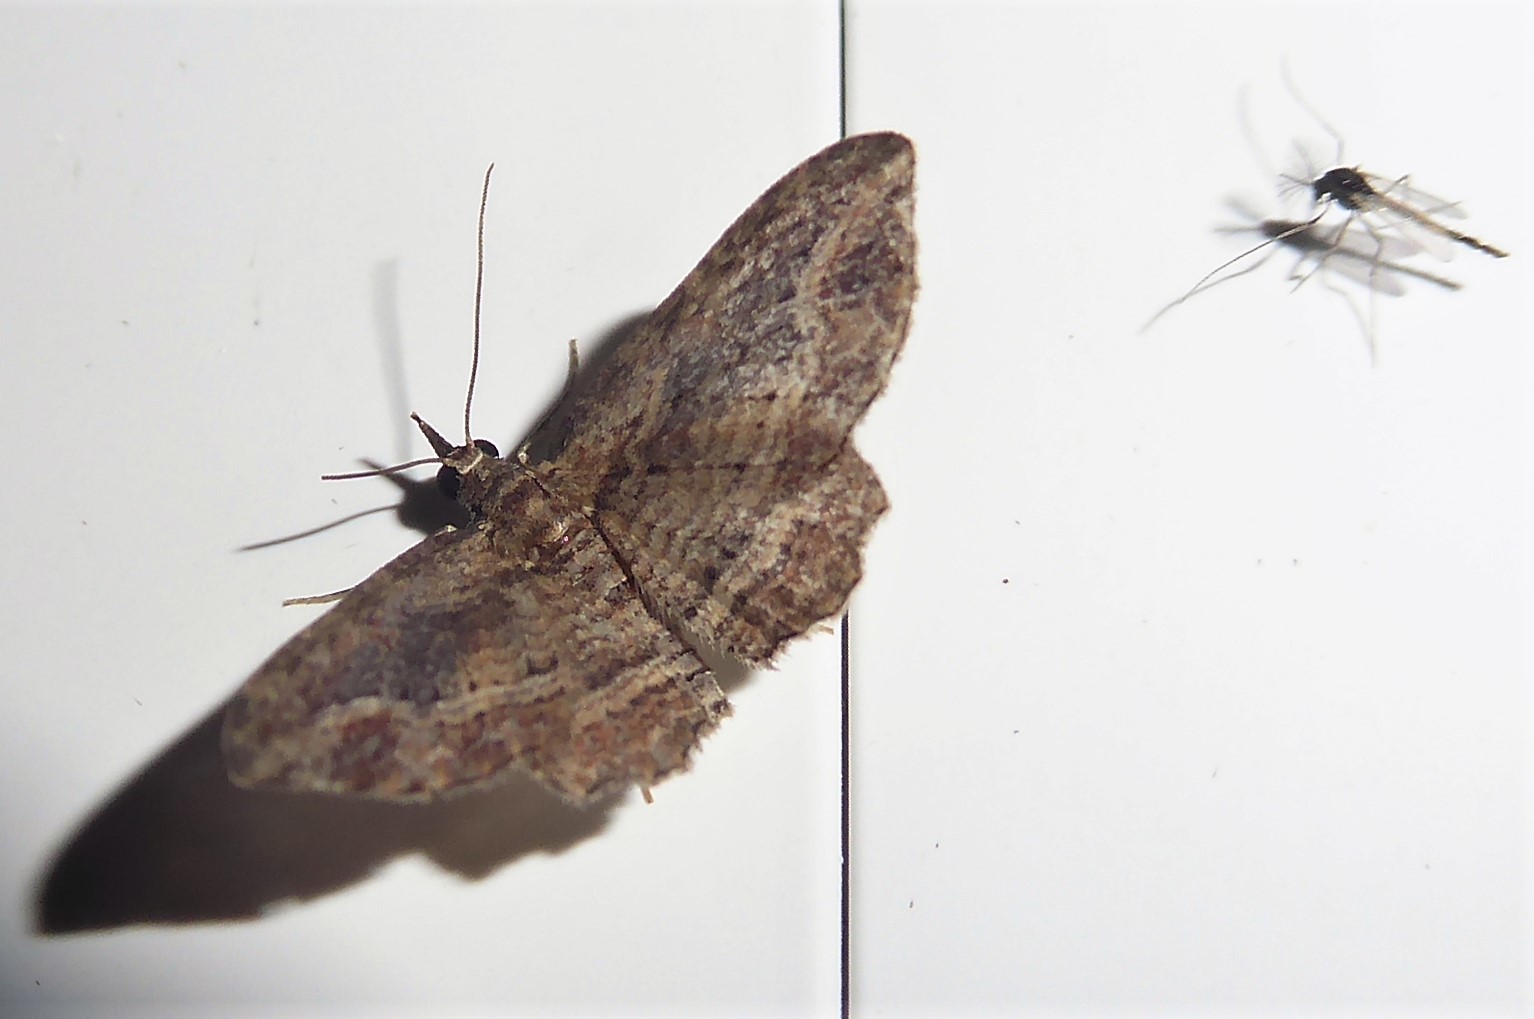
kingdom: Animalia
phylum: Arthropoda
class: Insecta
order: Lepidoptera
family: Geometridae
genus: Chloroclystis
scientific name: Chloroclystis filata
